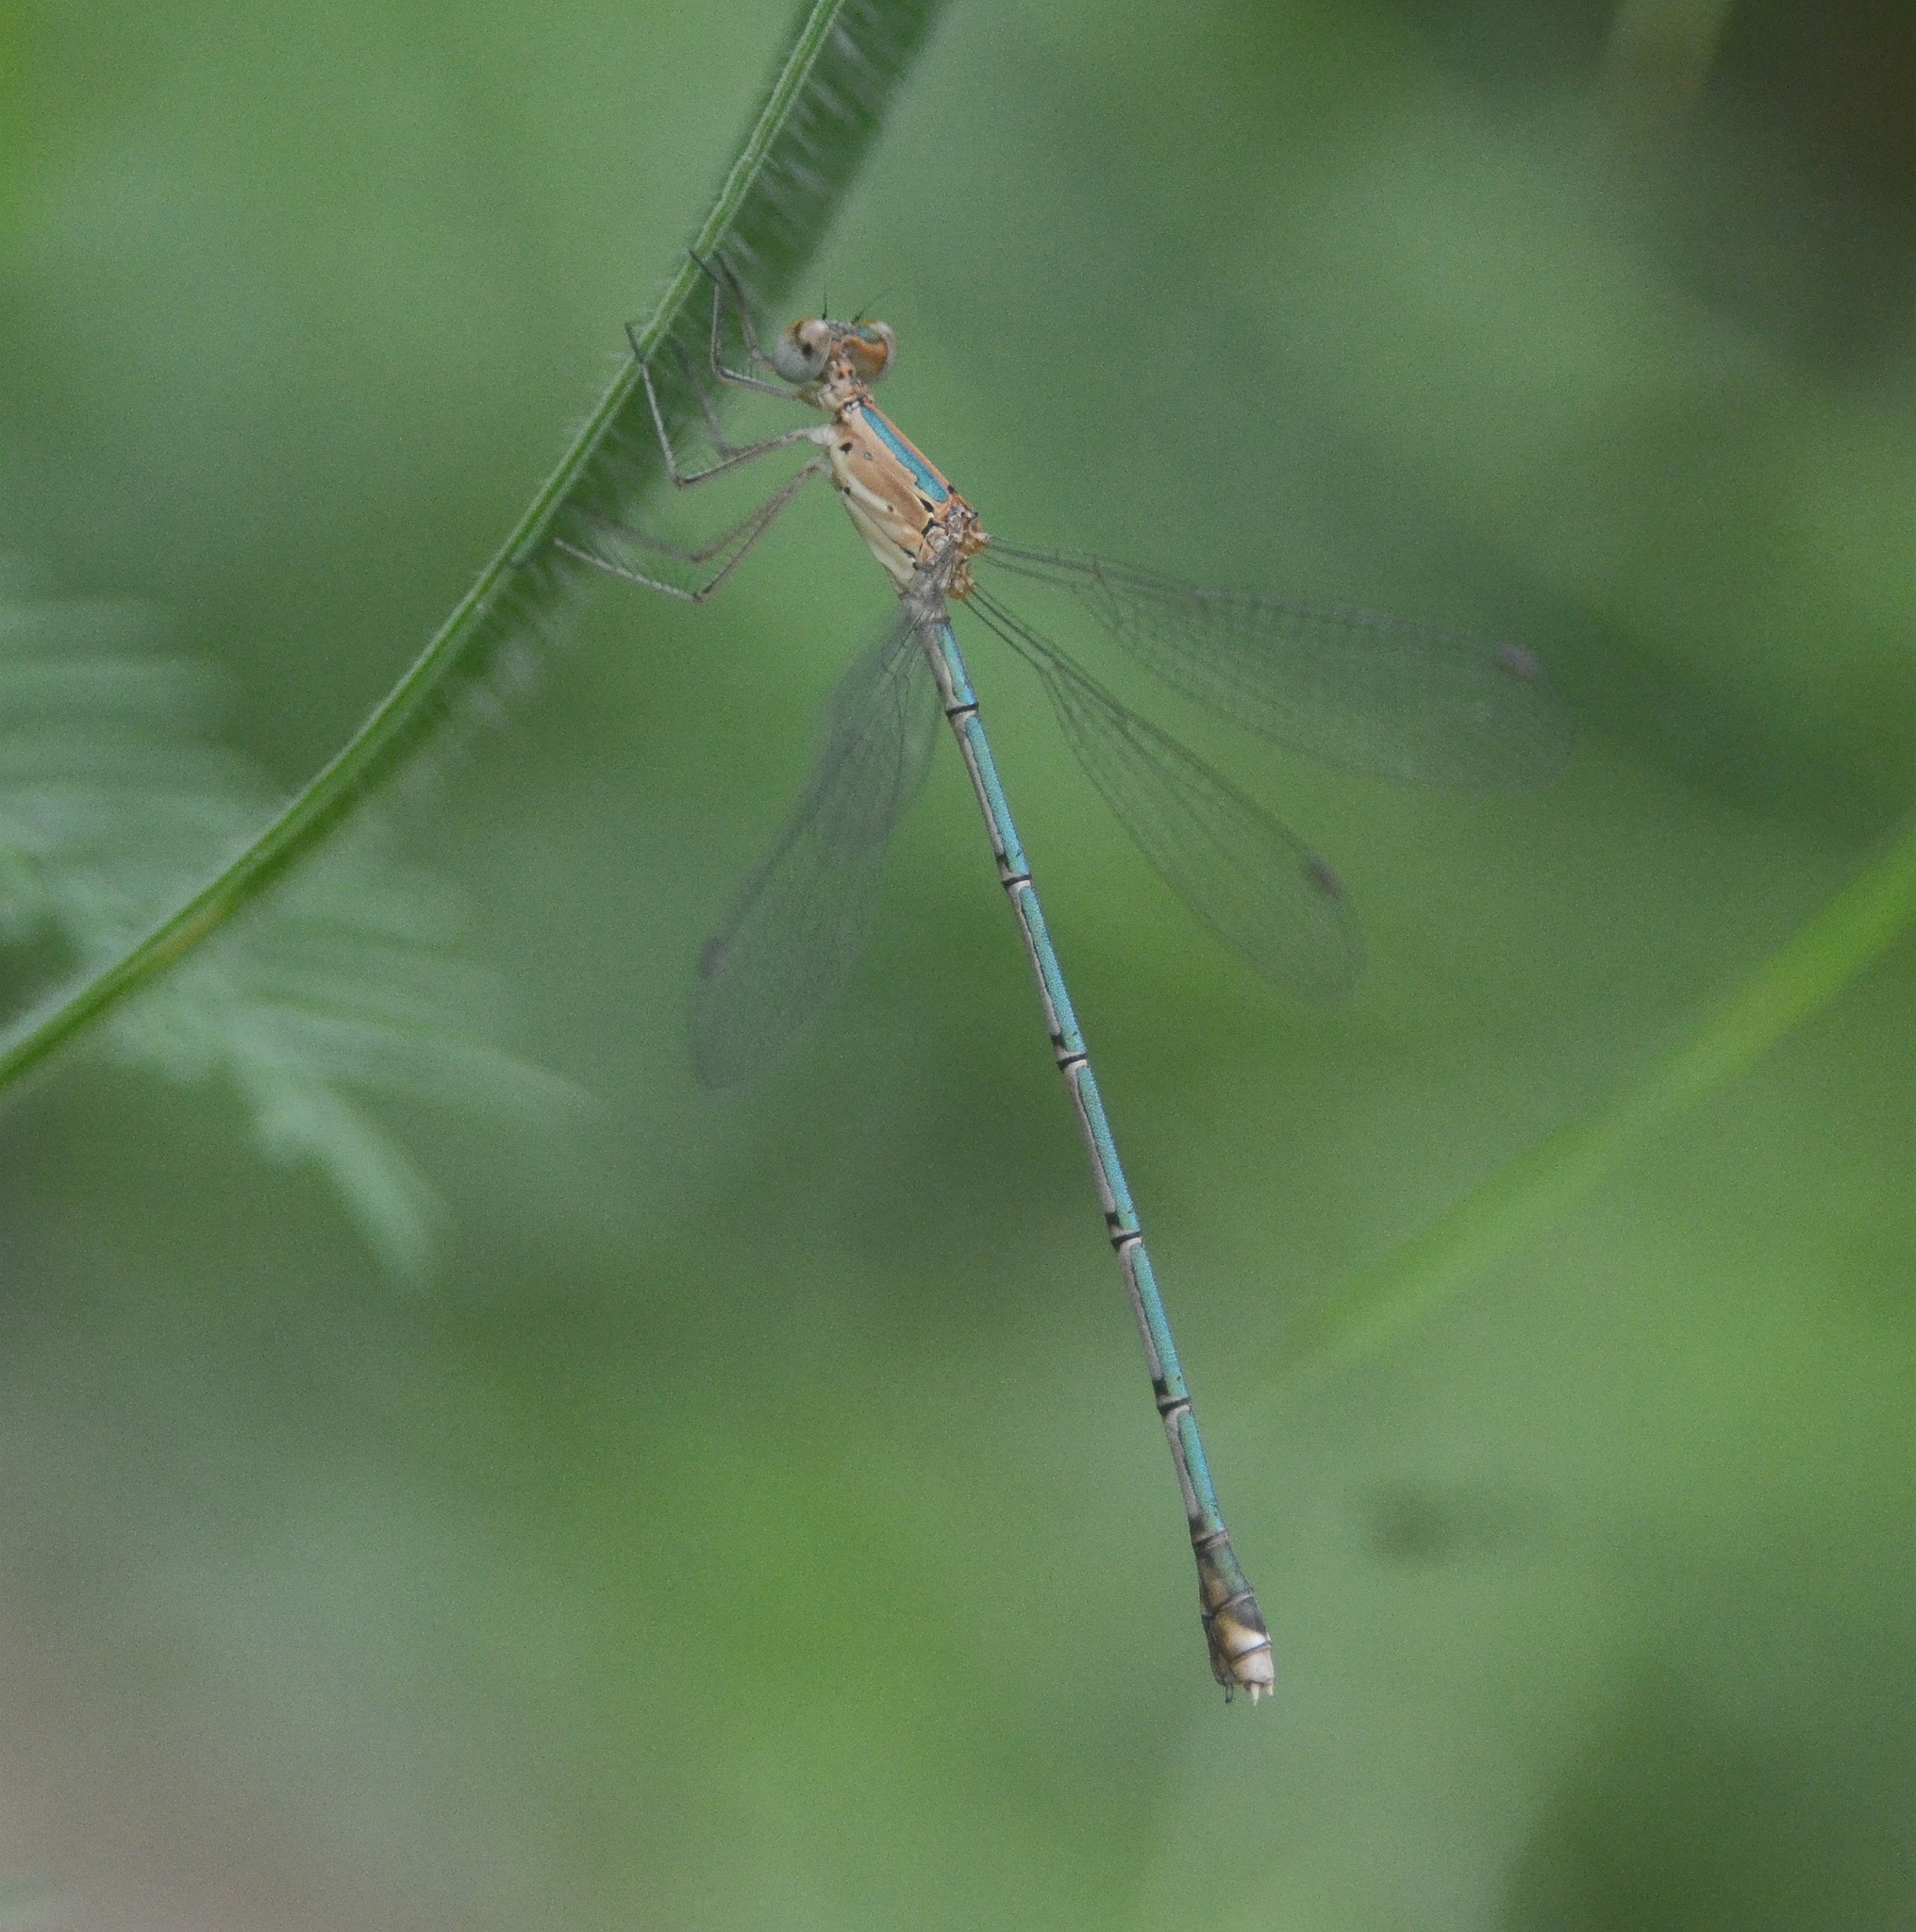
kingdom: Animalia
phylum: Arthropoda
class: Insecta
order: Odonata
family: Lestidae
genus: Lestes
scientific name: Lestes elatus
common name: Emerald spreadwing
